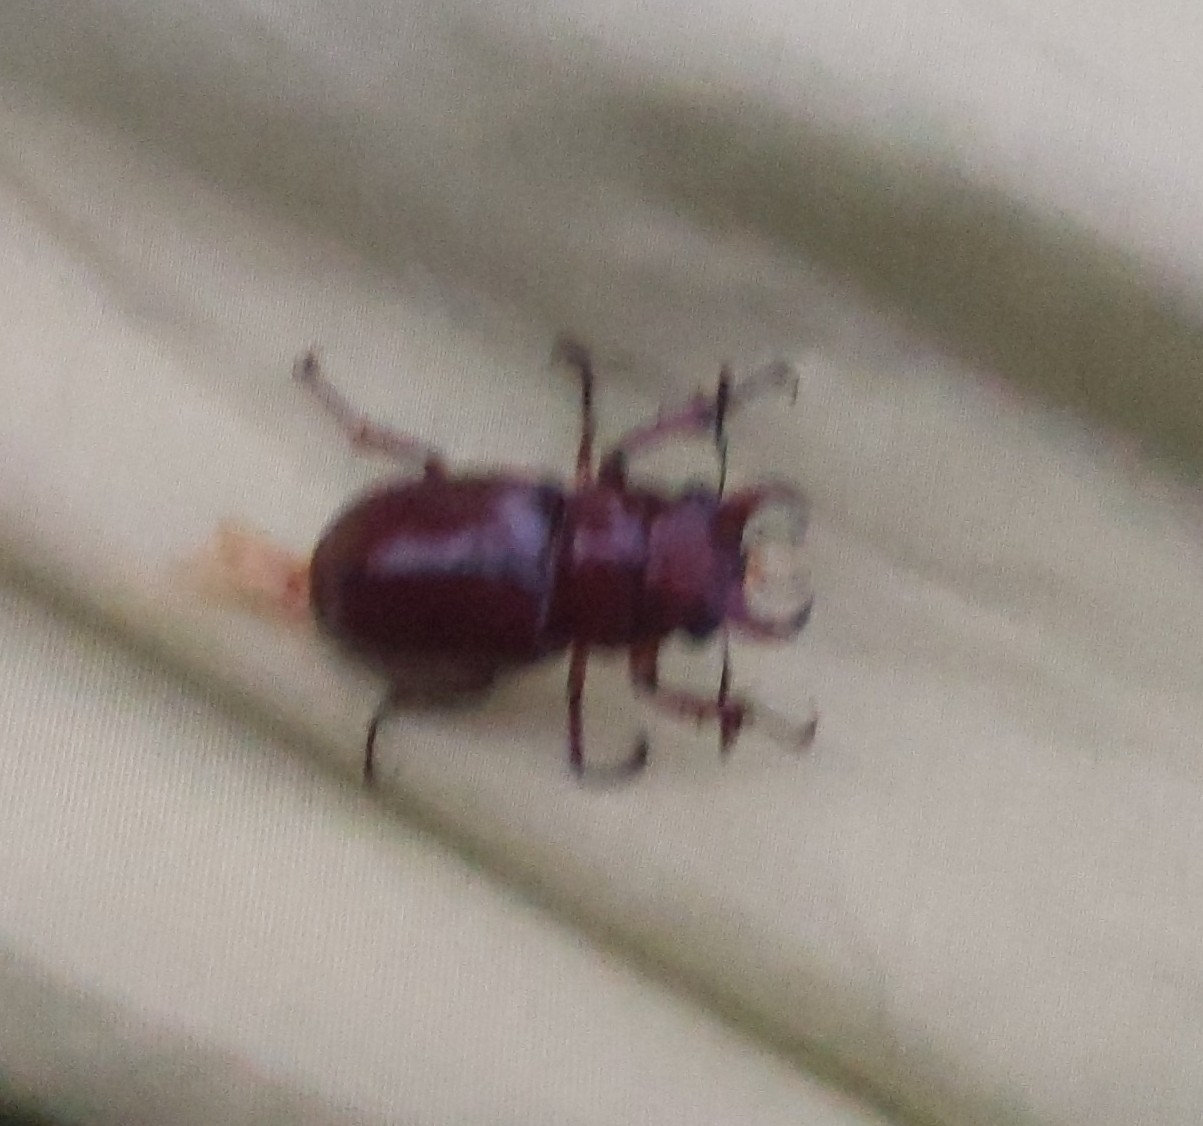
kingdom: Animalia
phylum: Arthropoda
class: Insecta
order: Coleoptera
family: Lucanidae
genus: Lucanus
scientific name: Lucanus capreolus
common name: Stag beetle
